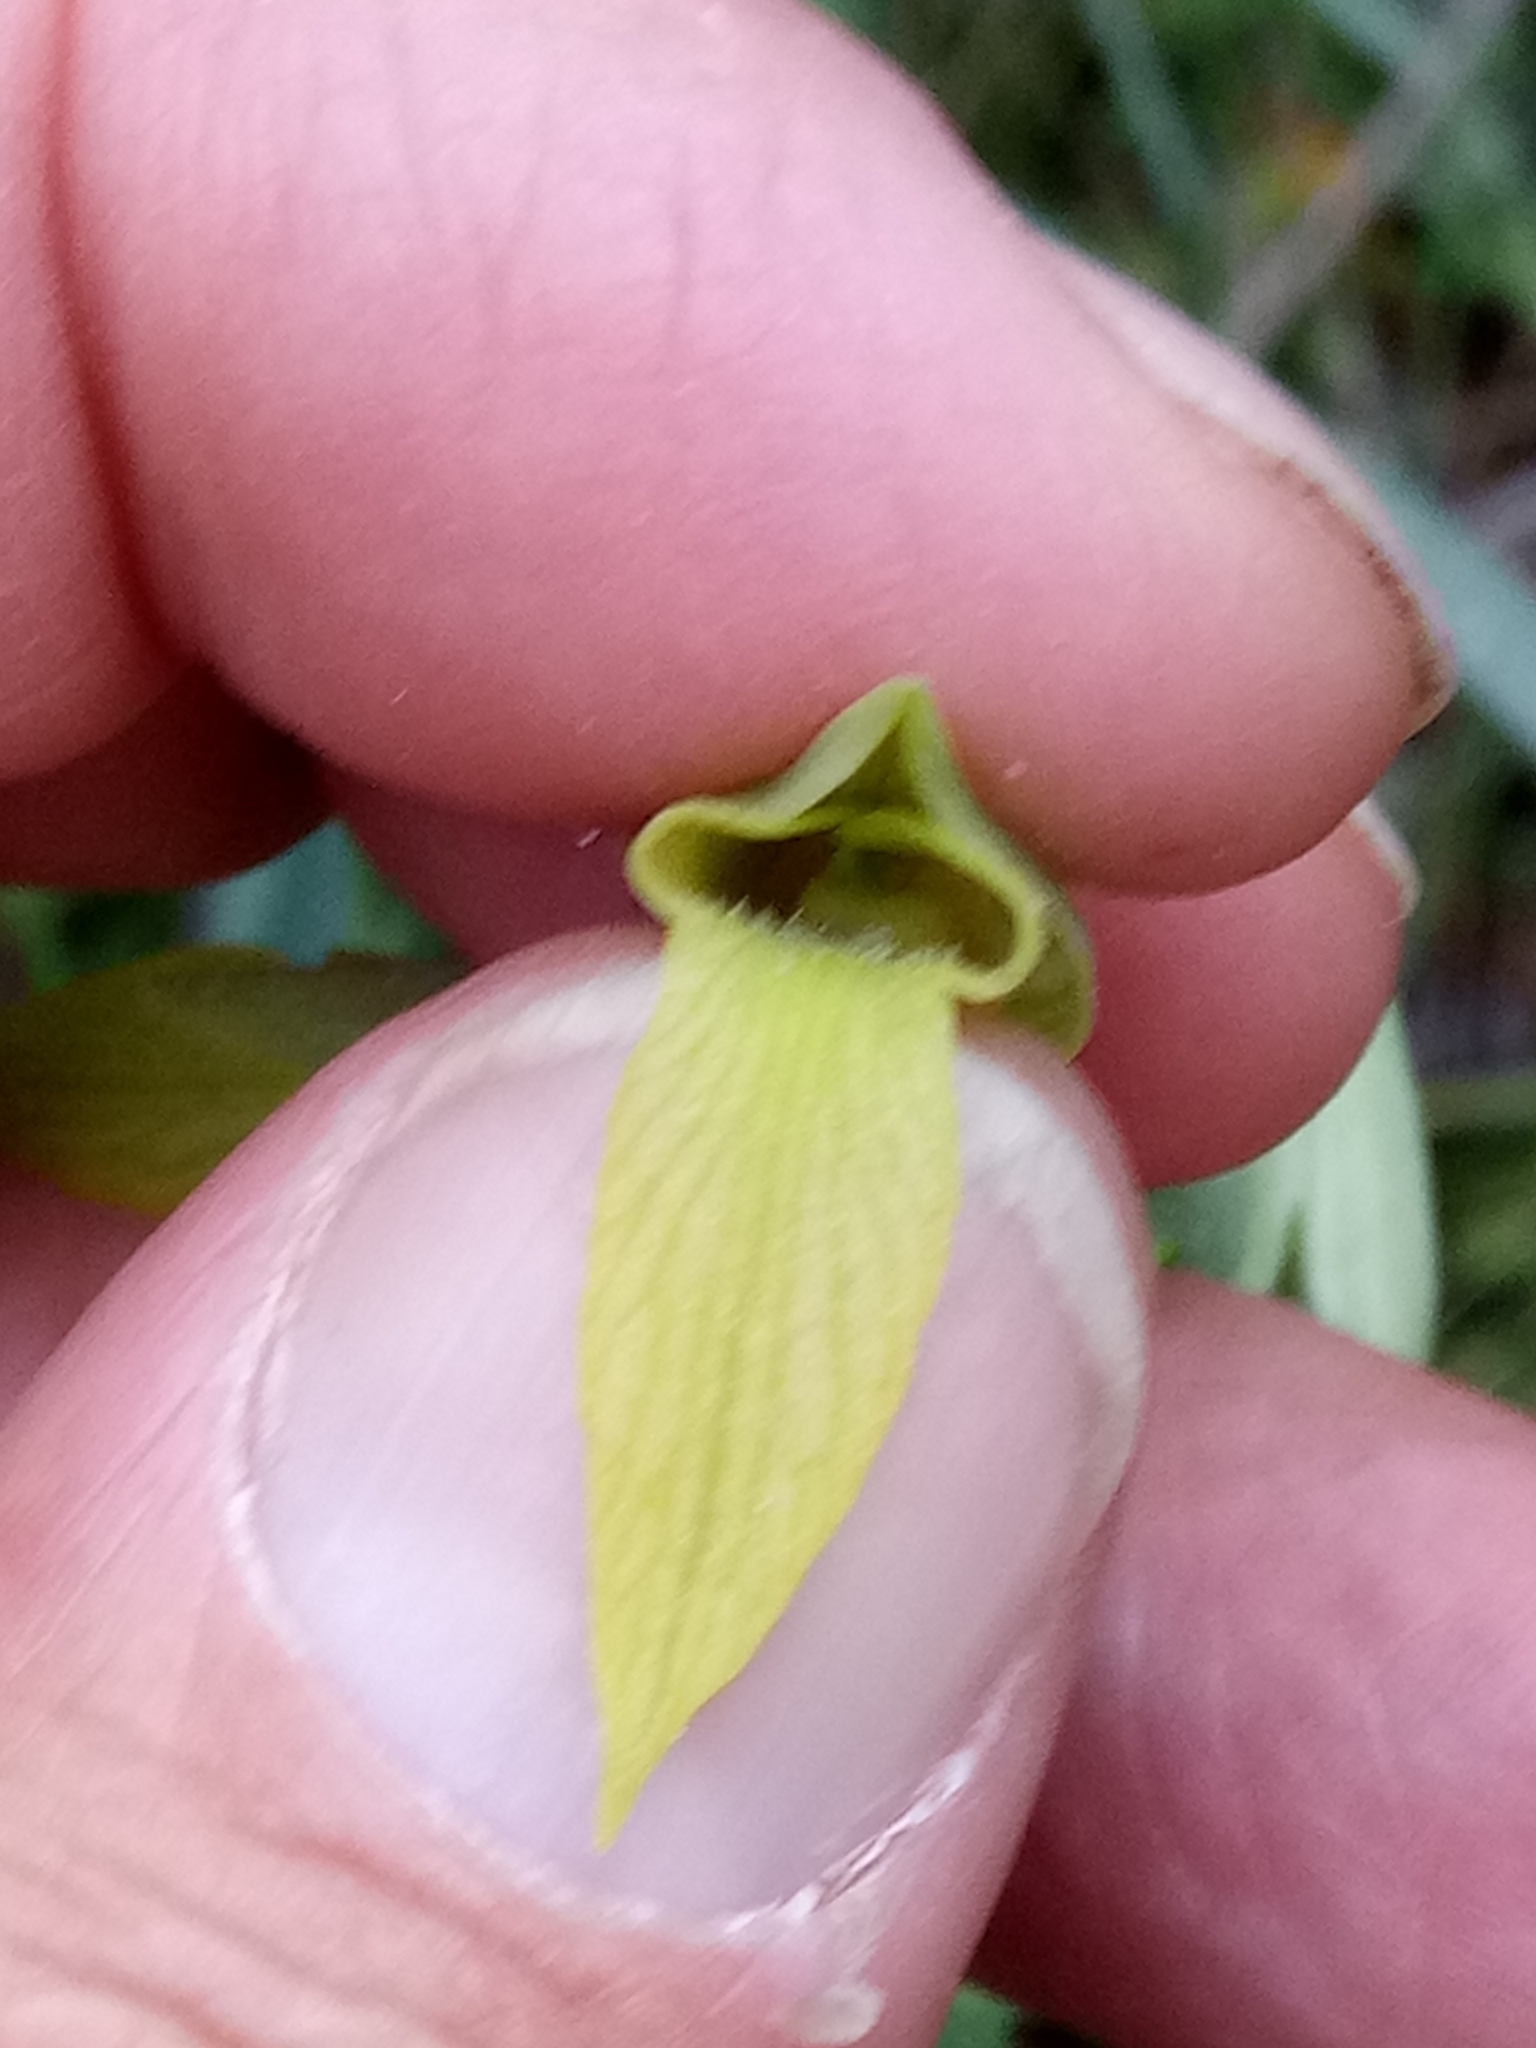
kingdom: Plantae
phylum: Tracheophyta
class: Liliopsida
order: Asparagales
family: Orchidaceae
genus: Serapias
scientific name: Serapias lingua
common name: Tongue-orchid
